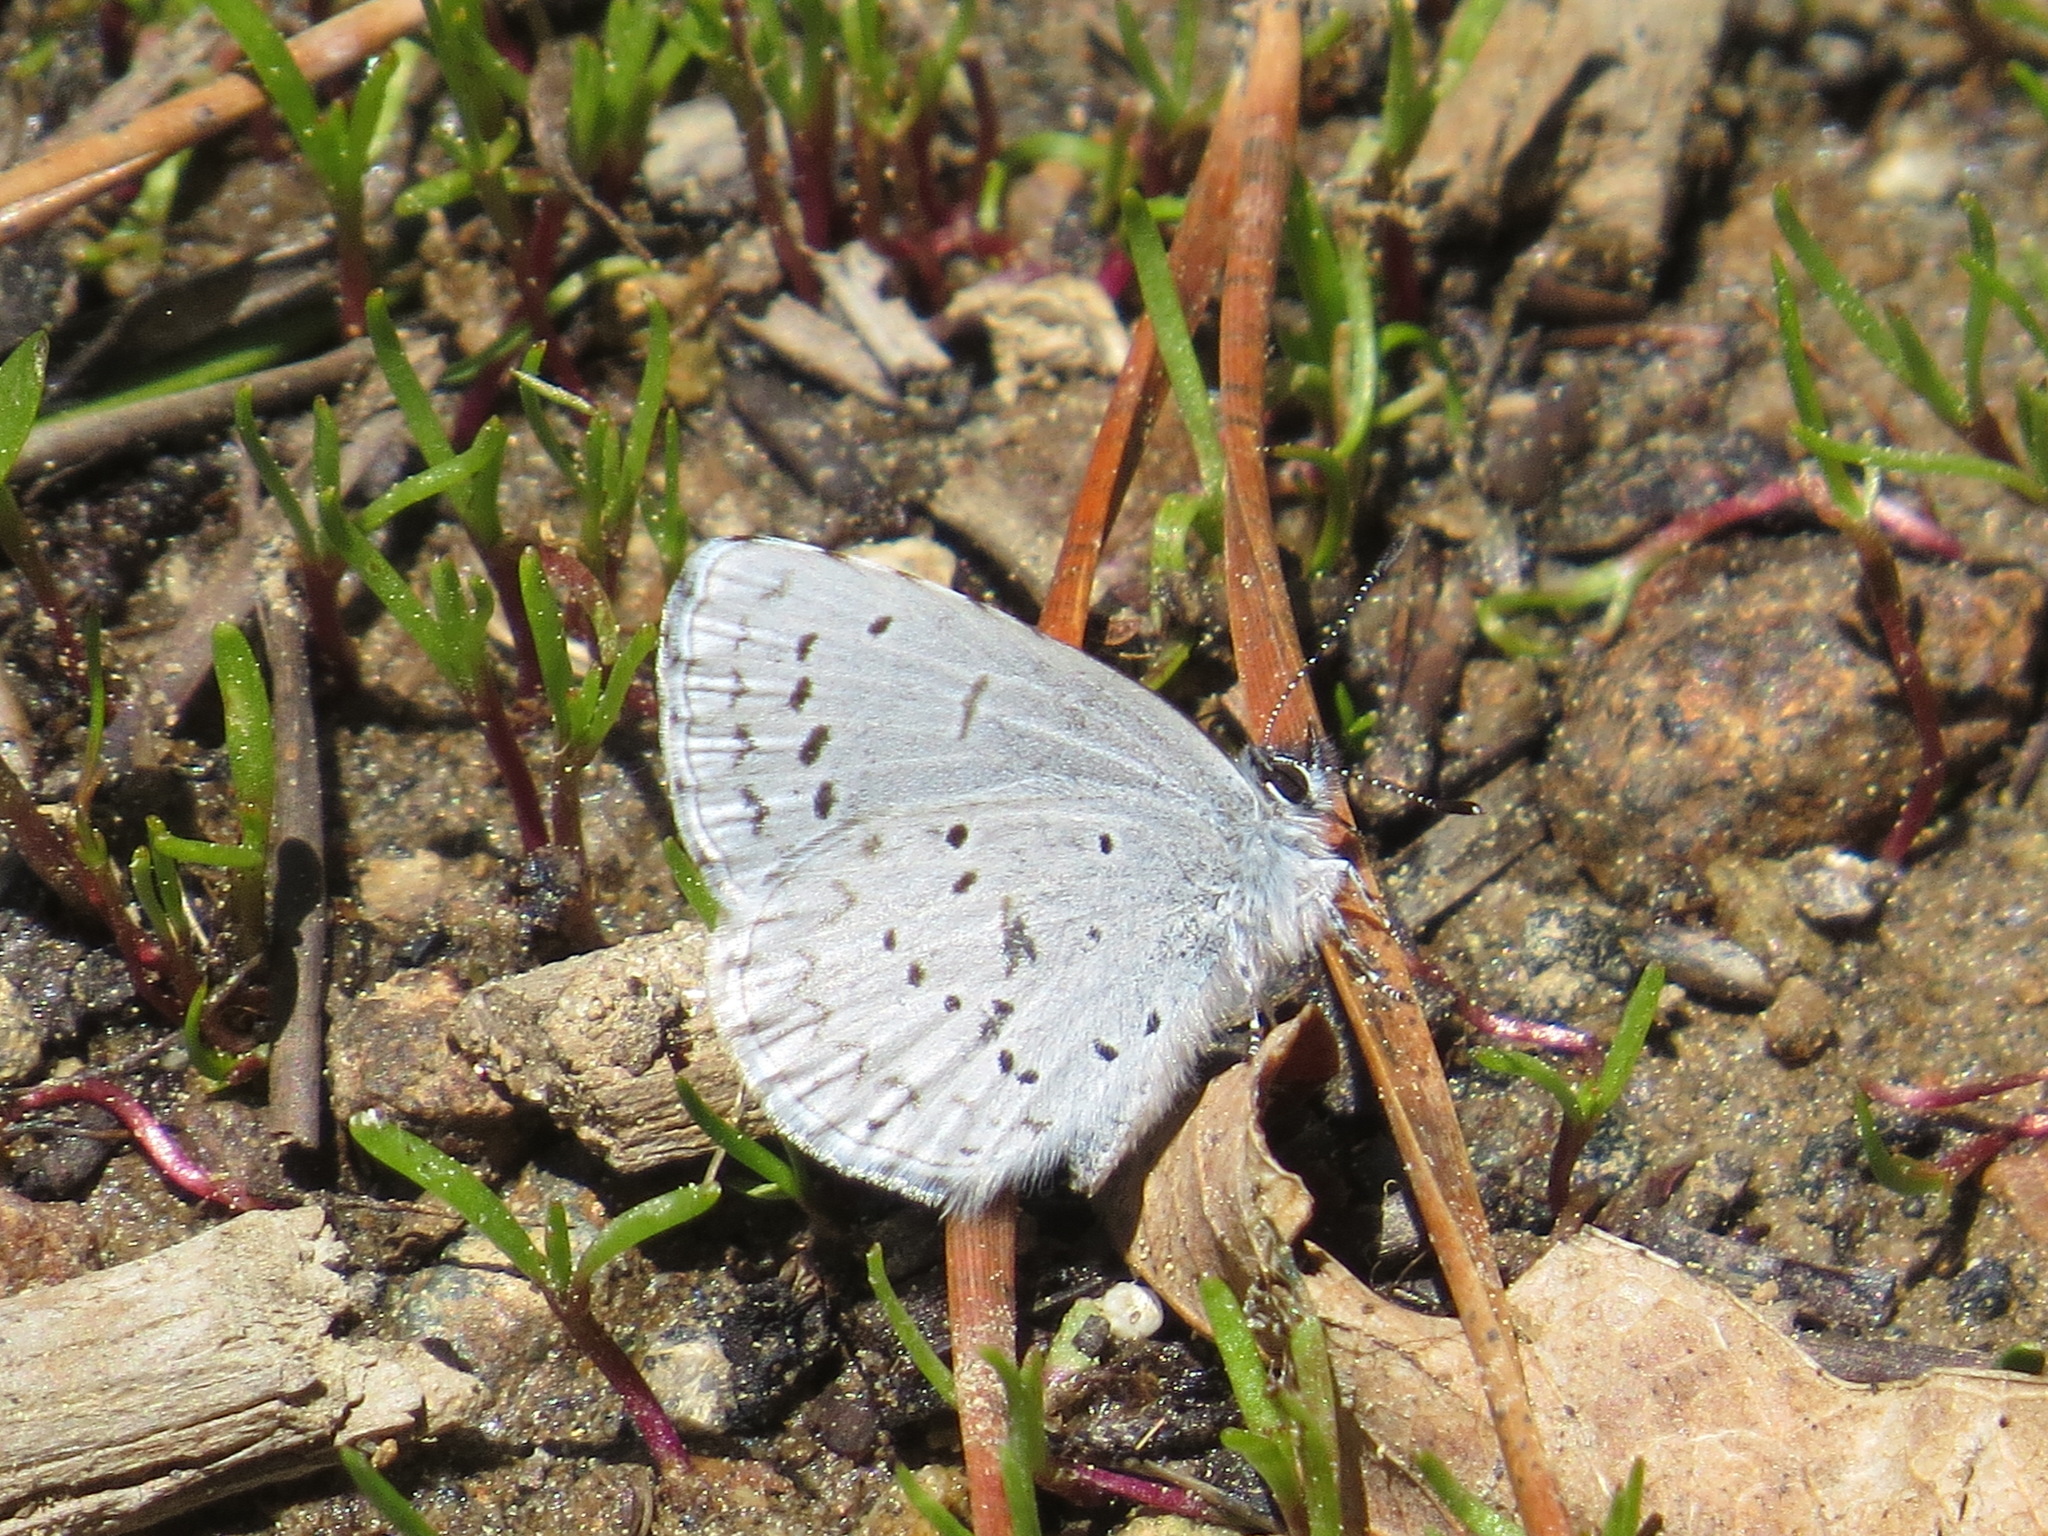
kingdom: Animalia
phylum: Arthropoda
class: Insecta
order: Lepidoptera
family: Lycaenidae
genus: Celastrina
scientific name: Celastrina ladon
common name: Spring azure
